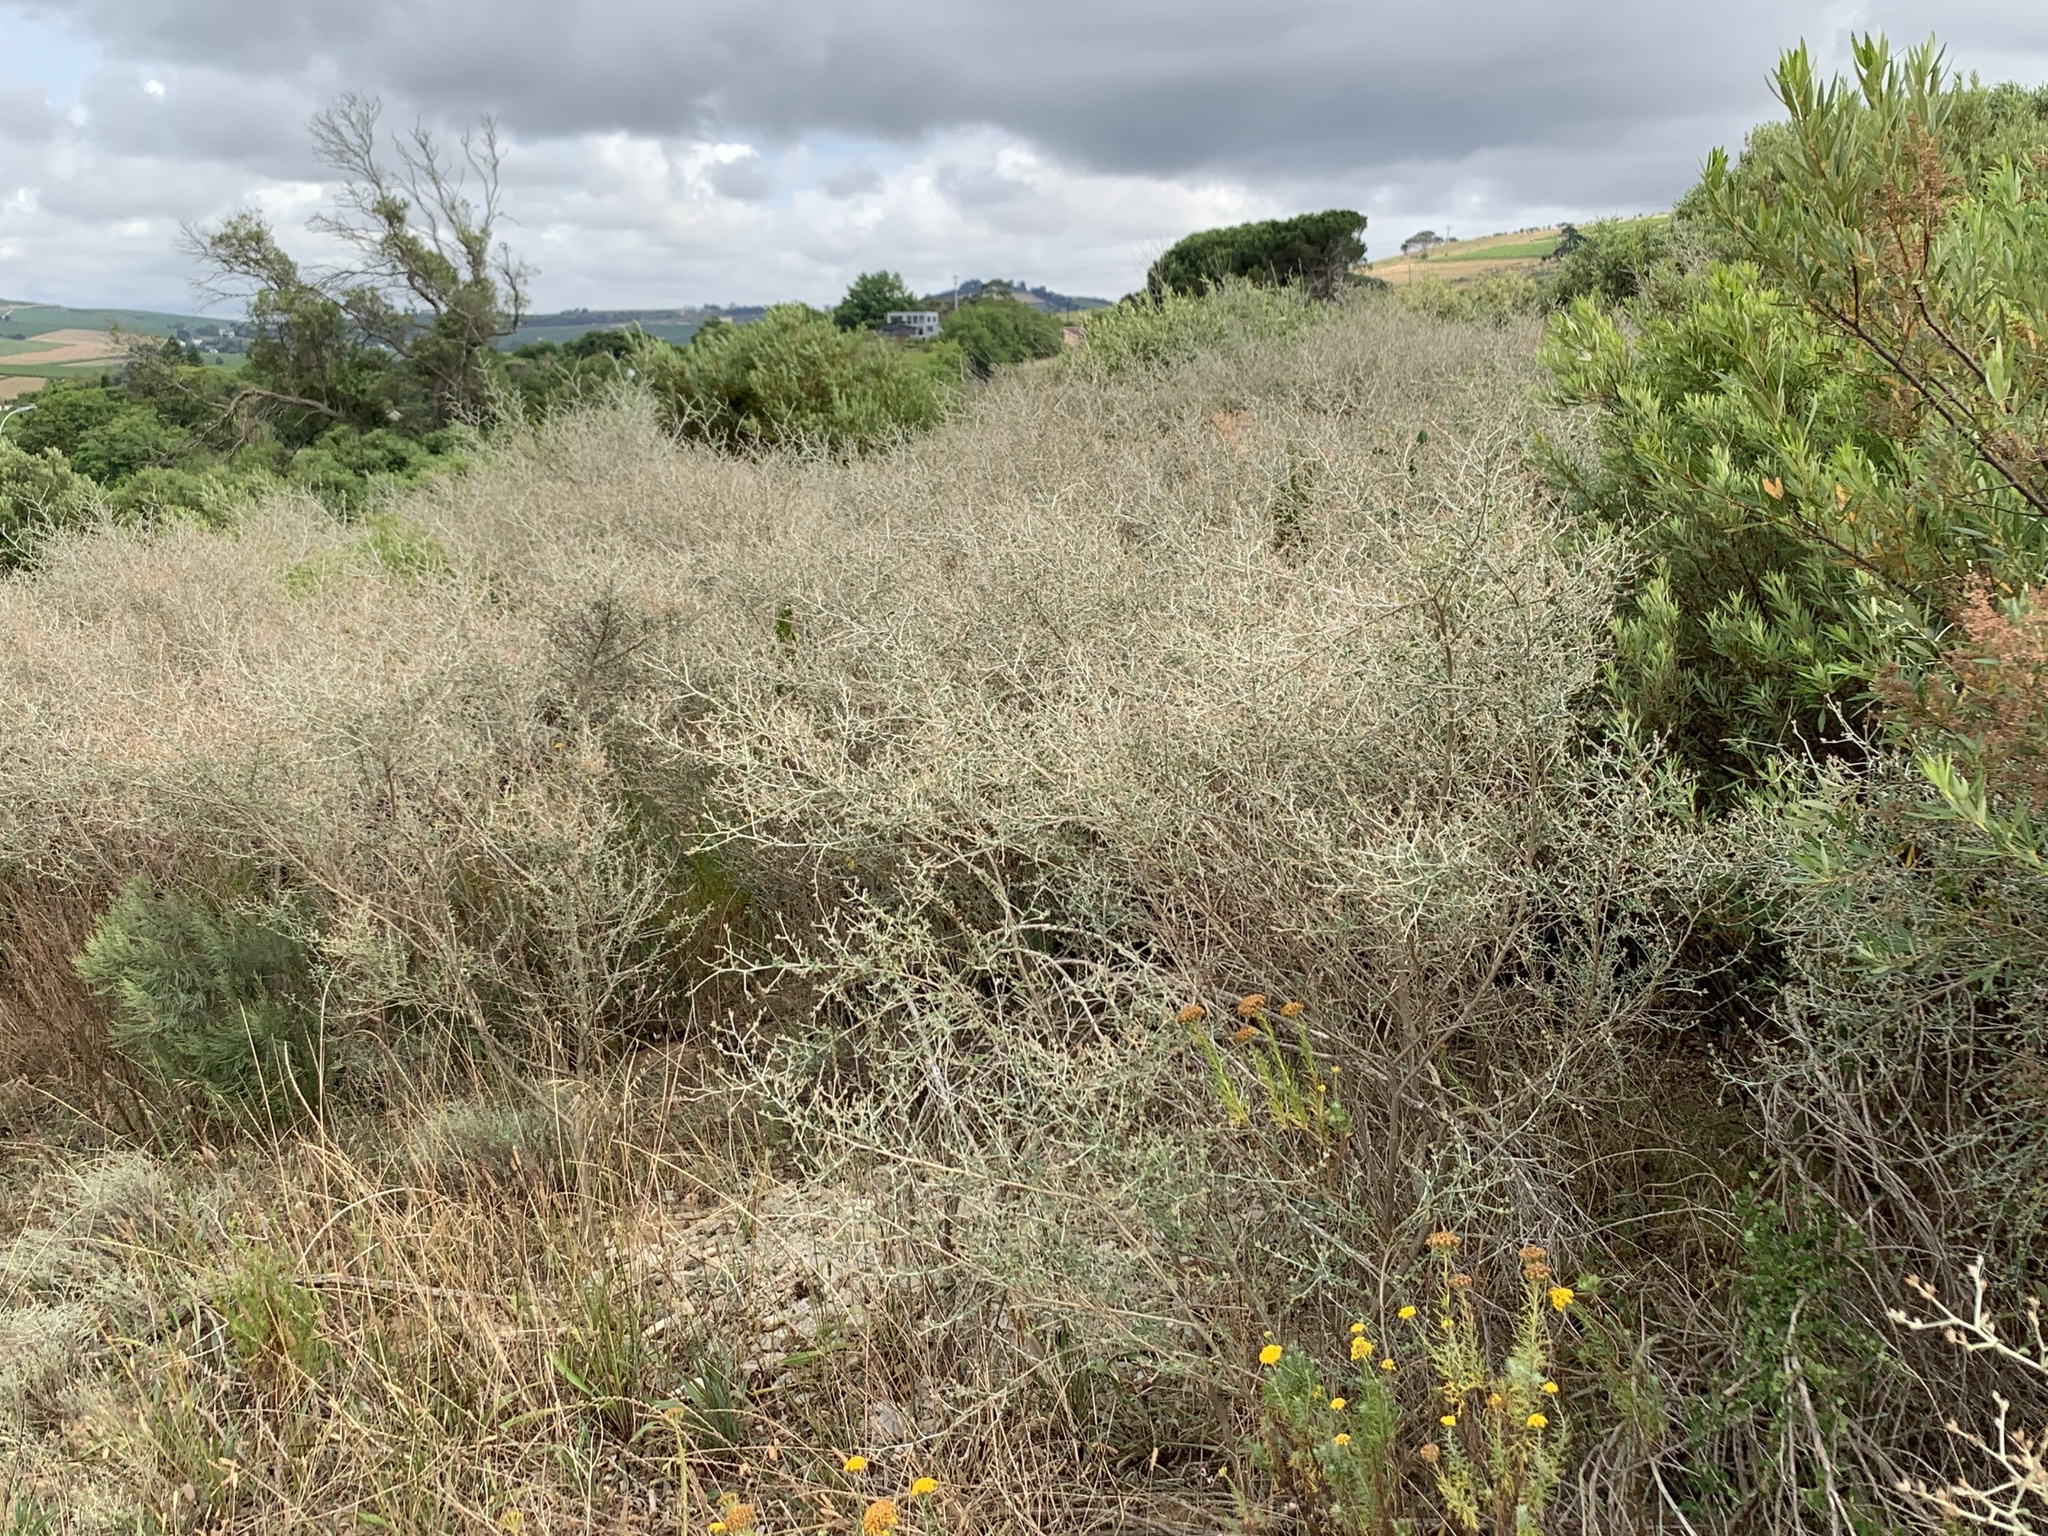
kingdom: Plantae
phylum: Tracheophyta
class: Magnoliopsida
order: Fabales
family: Fabaceae
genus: Psoralea
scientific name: Psoralea hirta
